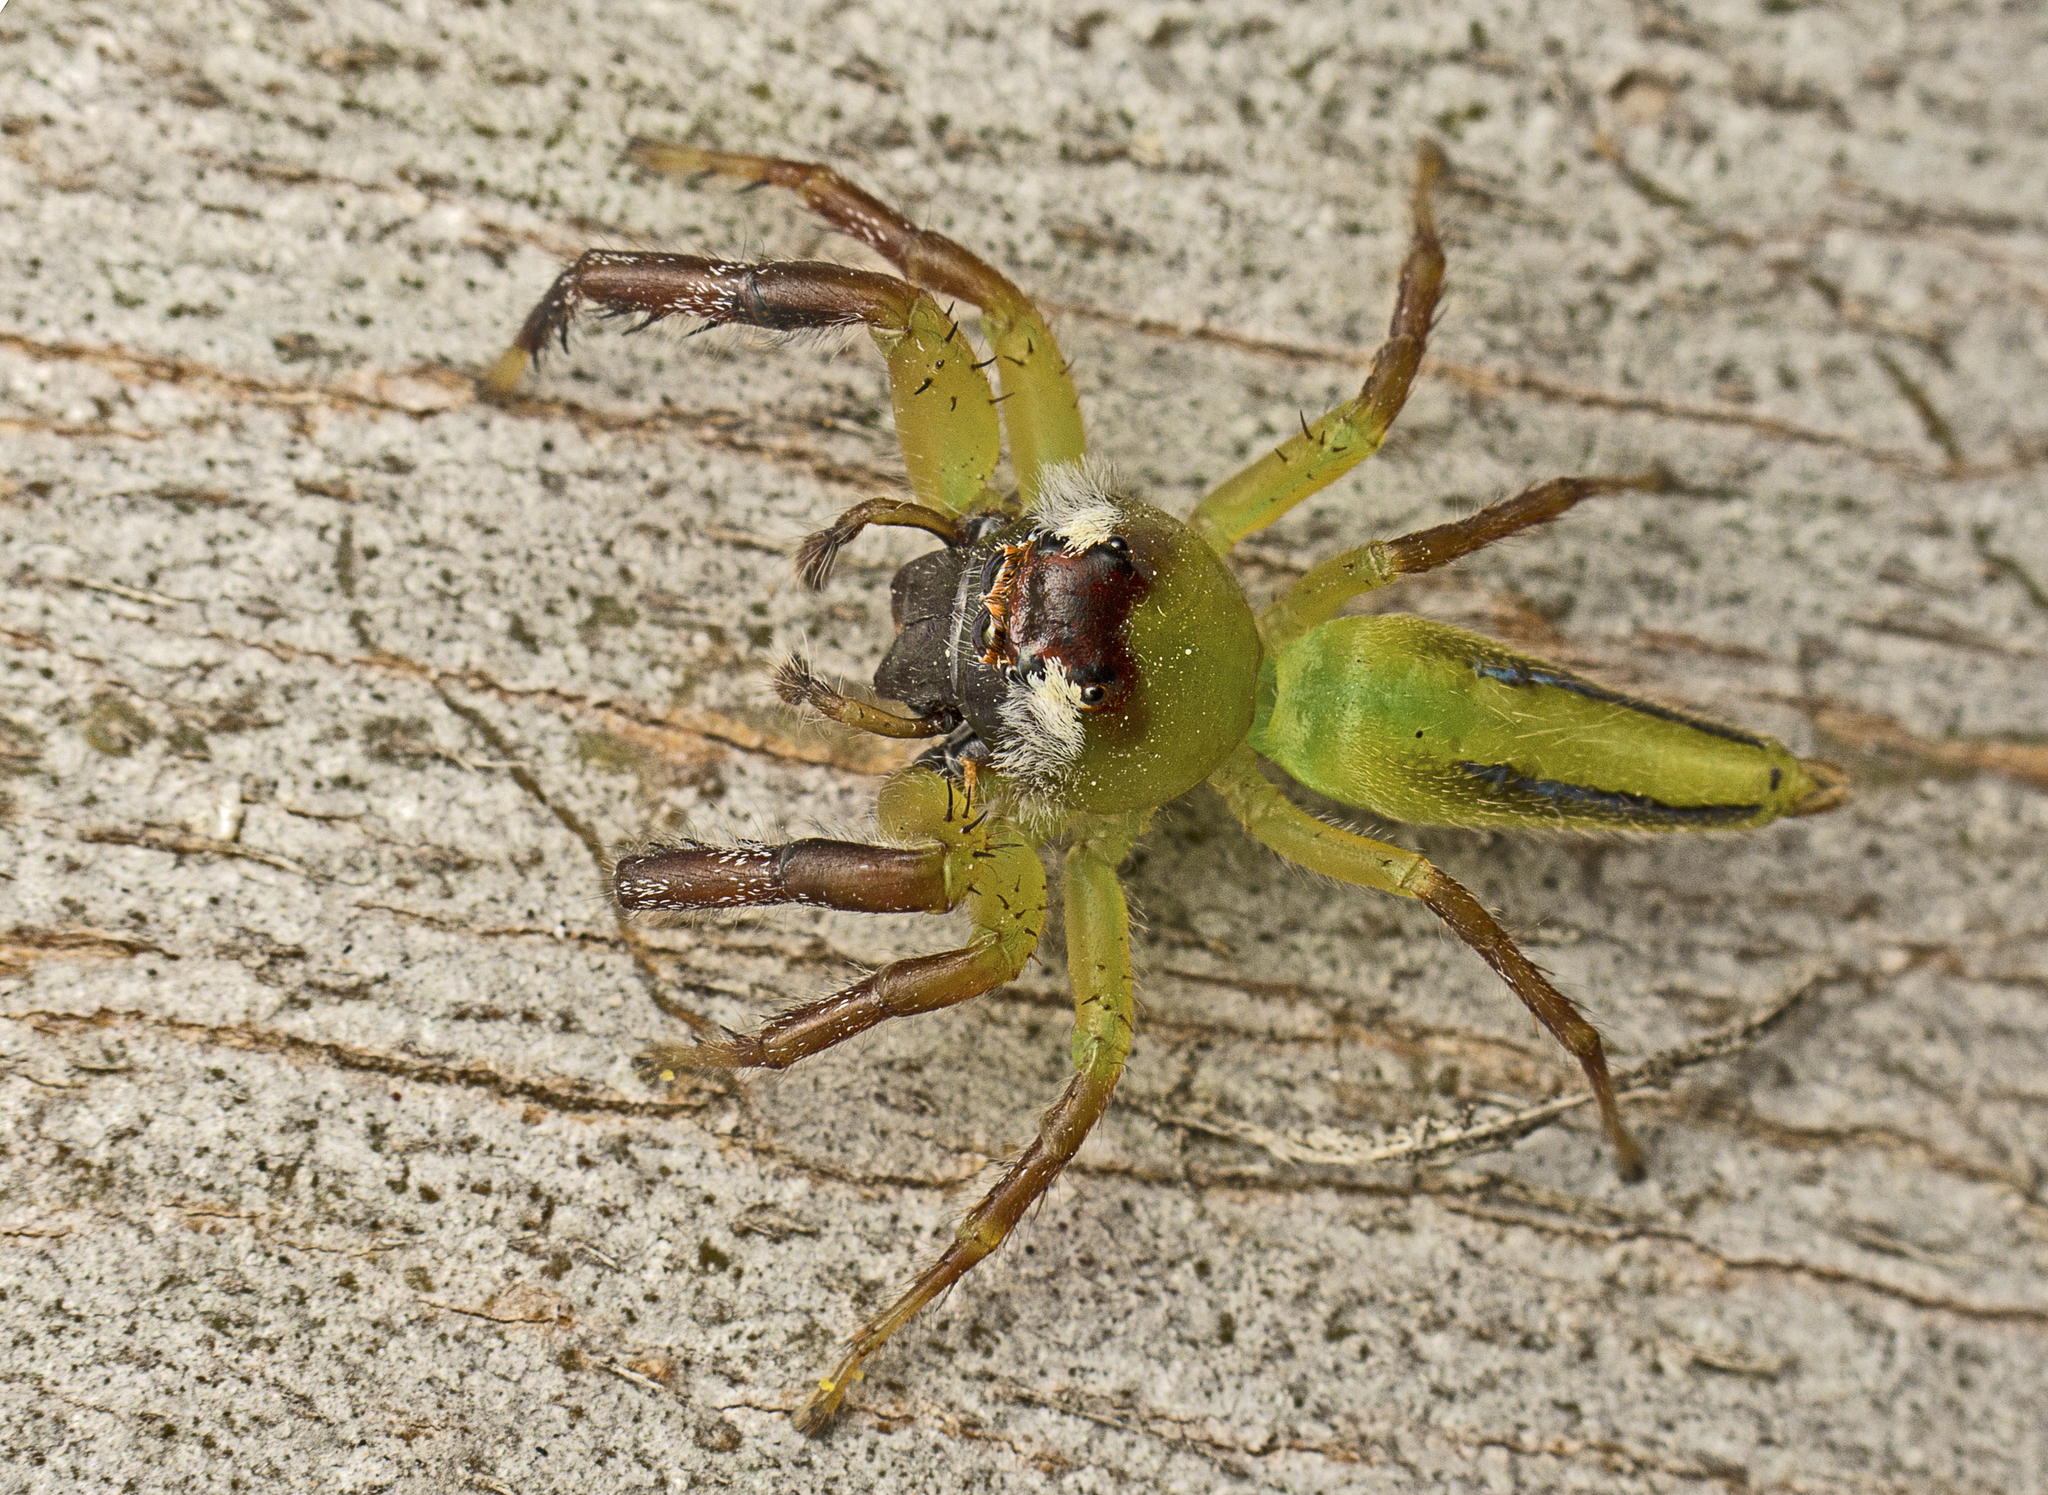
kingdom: Animalia
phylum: Arthropoda
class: Arachnida
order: Araneae
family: Salticidae
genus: Mopsus
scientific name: Mopsus mormon
